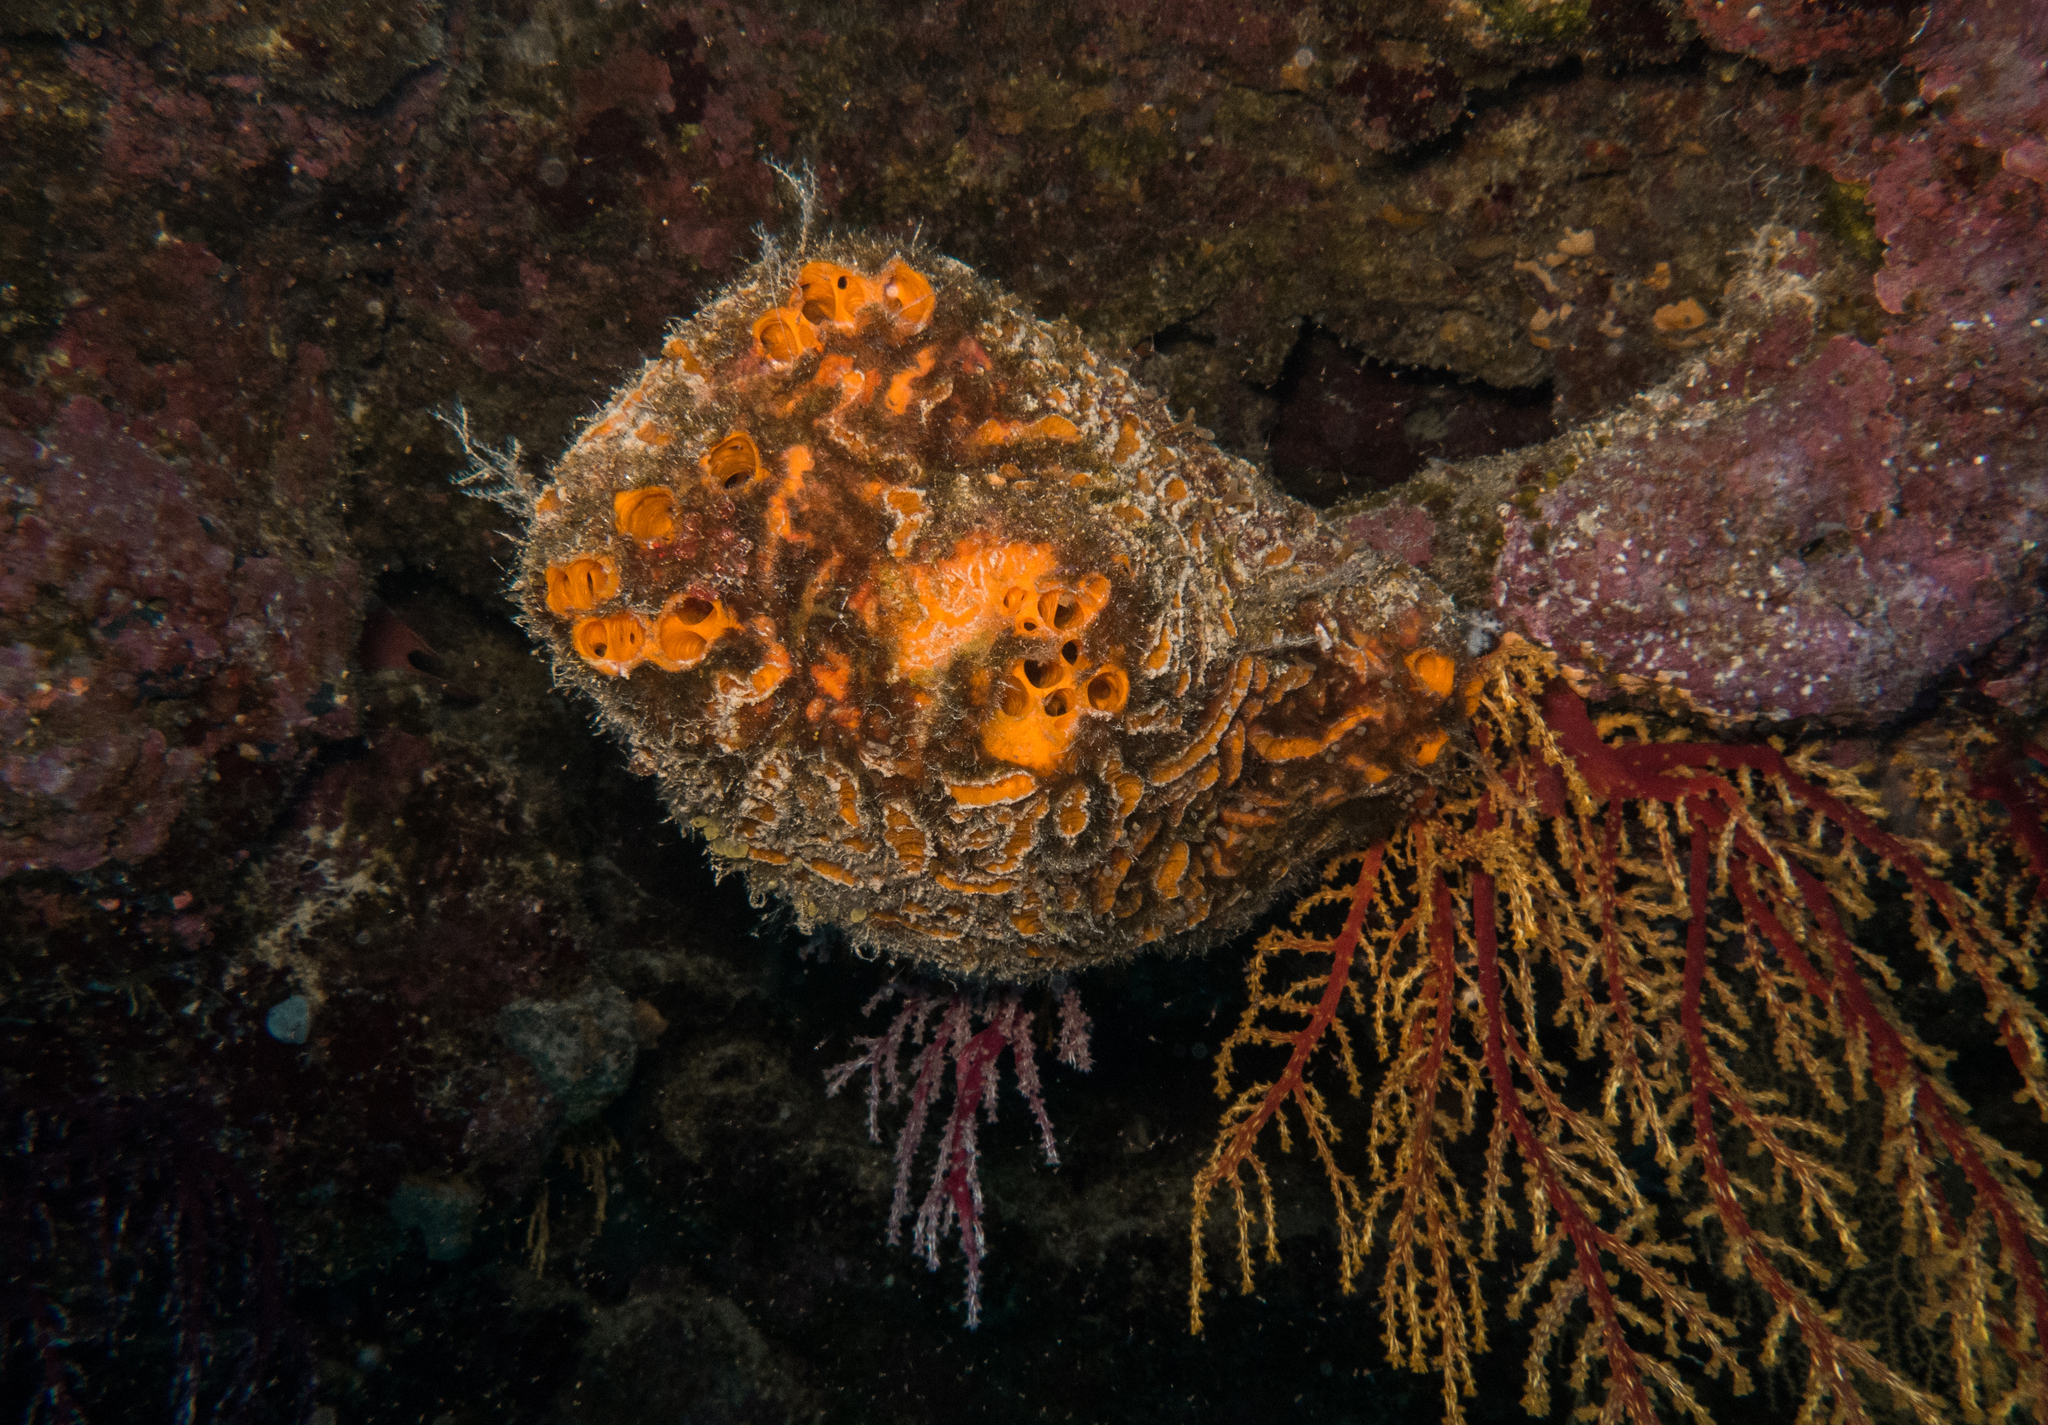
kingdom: Animalia
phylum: Porifera
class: Demospongiae
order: Axinellida
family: Heteroxyidae
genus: Myrmekioderma
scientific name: Myrmekioderma granulatum
